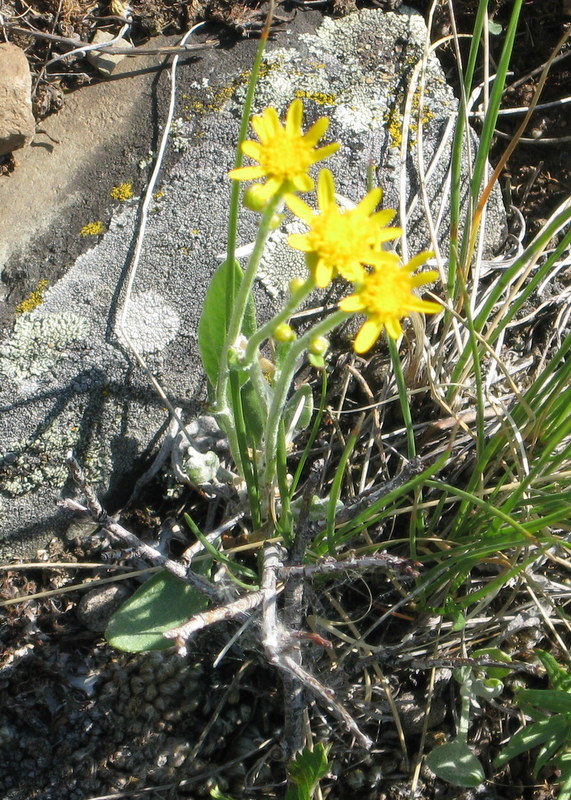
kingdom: Plantae
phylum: Tracheophyta
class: Magnoliopsida
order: Asterales
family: Asteraceae
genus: Packera
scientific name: Packera cana
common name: Woolly groundsel
